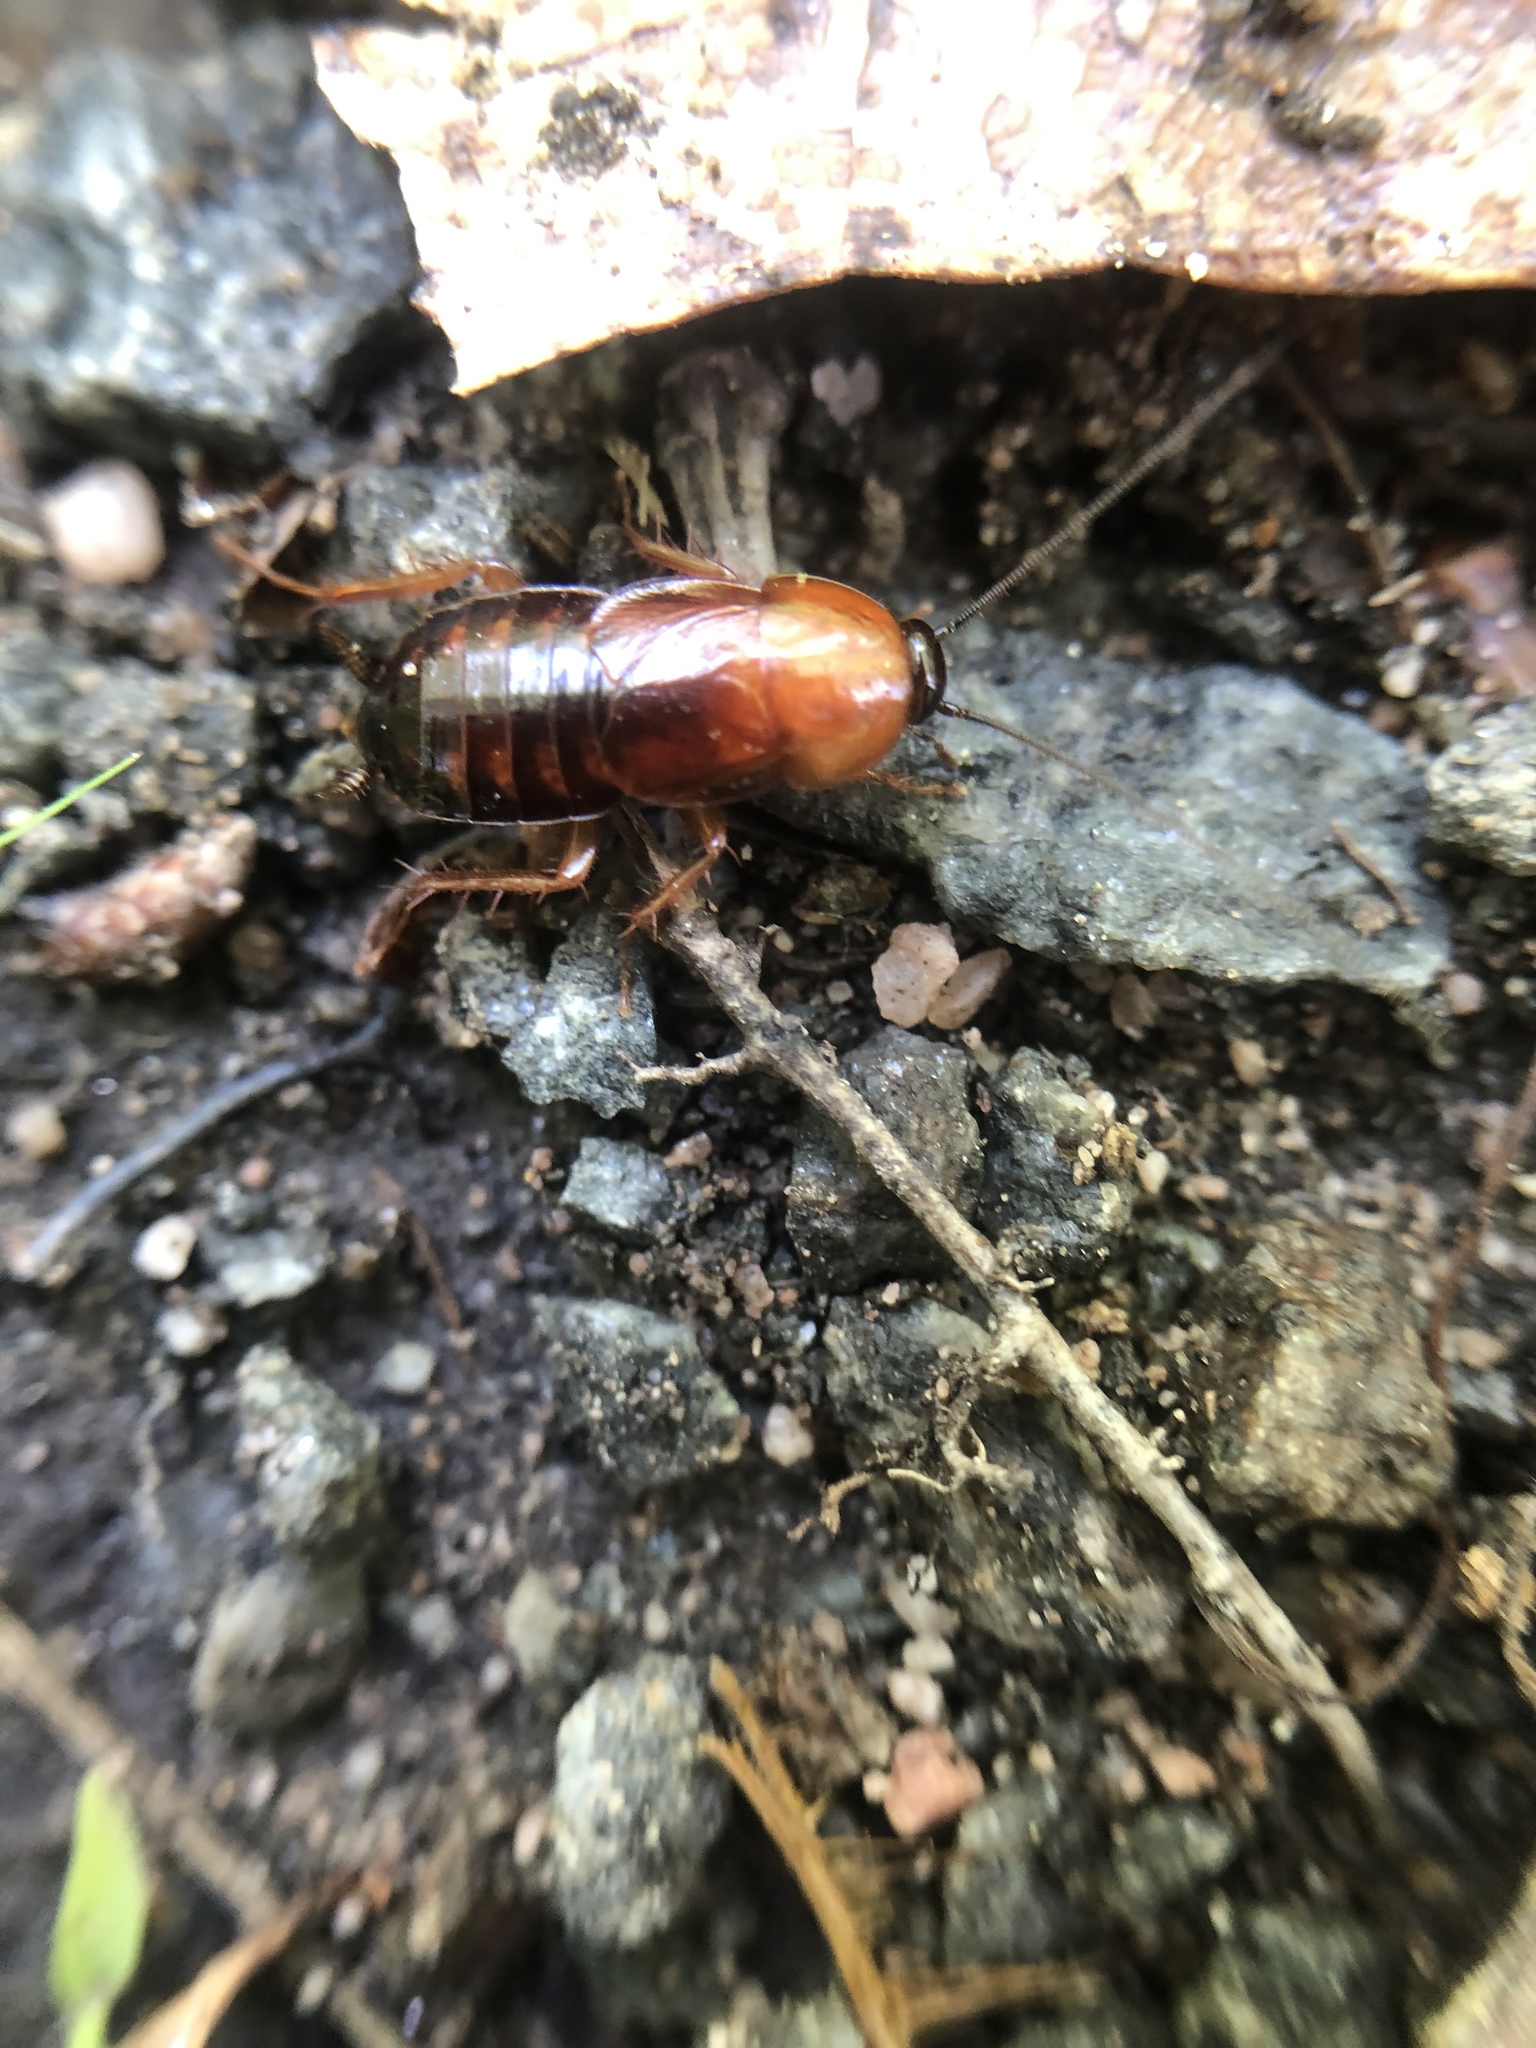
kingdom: Animalia
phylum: Arthropoda
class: Insecta
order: Blattodea
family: Ectobiidae
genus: Parcoblatta
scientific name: Parcoblatta virginica
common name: Virginia wood cockroach
